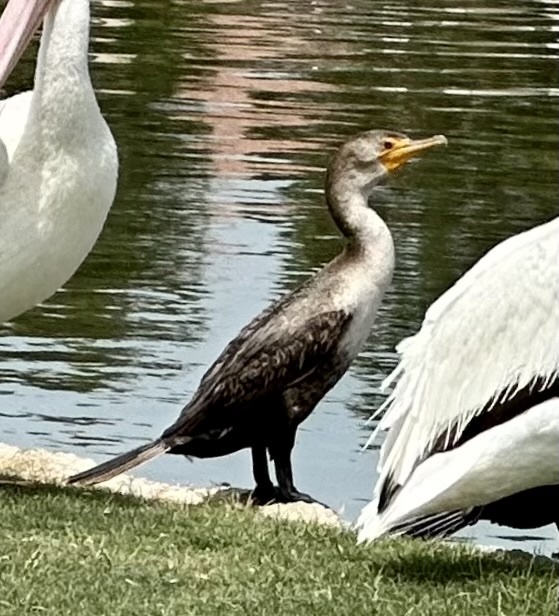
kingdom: Animalia
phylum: Chordata
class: Aves
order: Suliformes
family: Phalacrocoracidae
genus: Phalacrocorax
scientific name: Phalacrocorax auritus
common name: Double-crested cormorant
